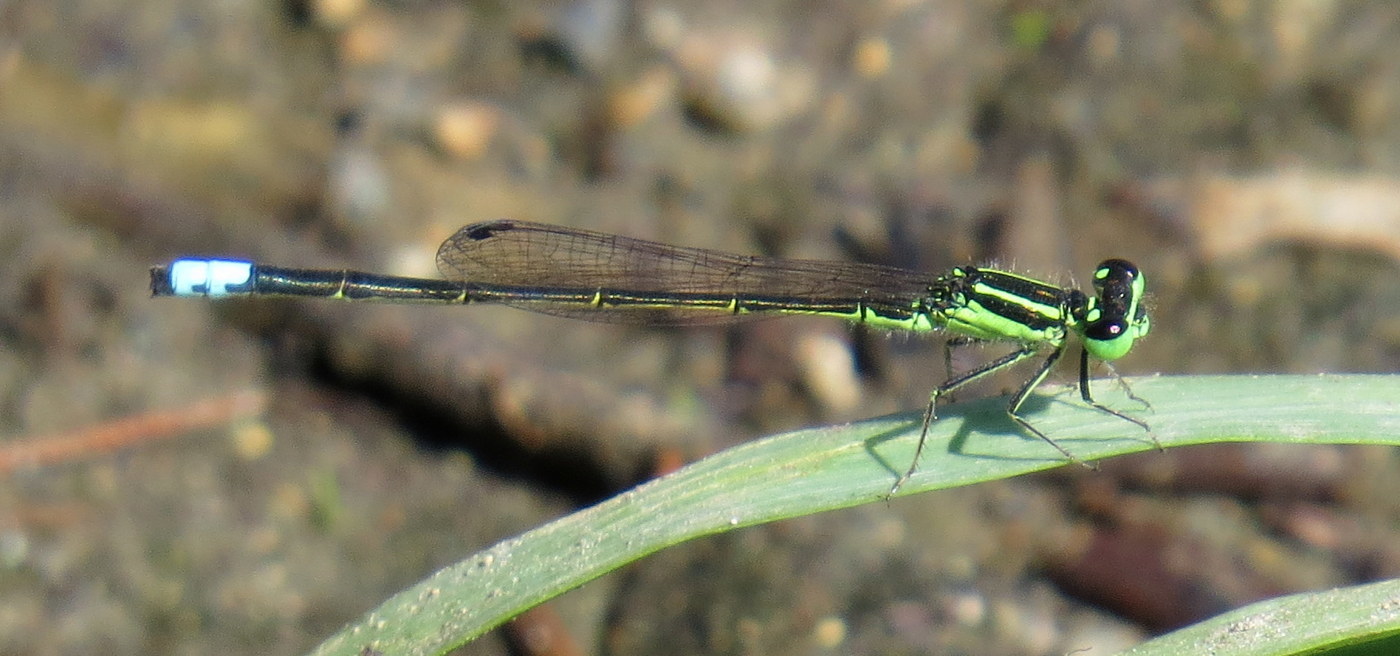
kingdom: Animalia
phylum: Arthropoda
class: Insecta
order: Odonata
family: Coenagrionidae
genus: Ischnura
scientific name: Ischnura verticalis
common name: Eastern forktail
